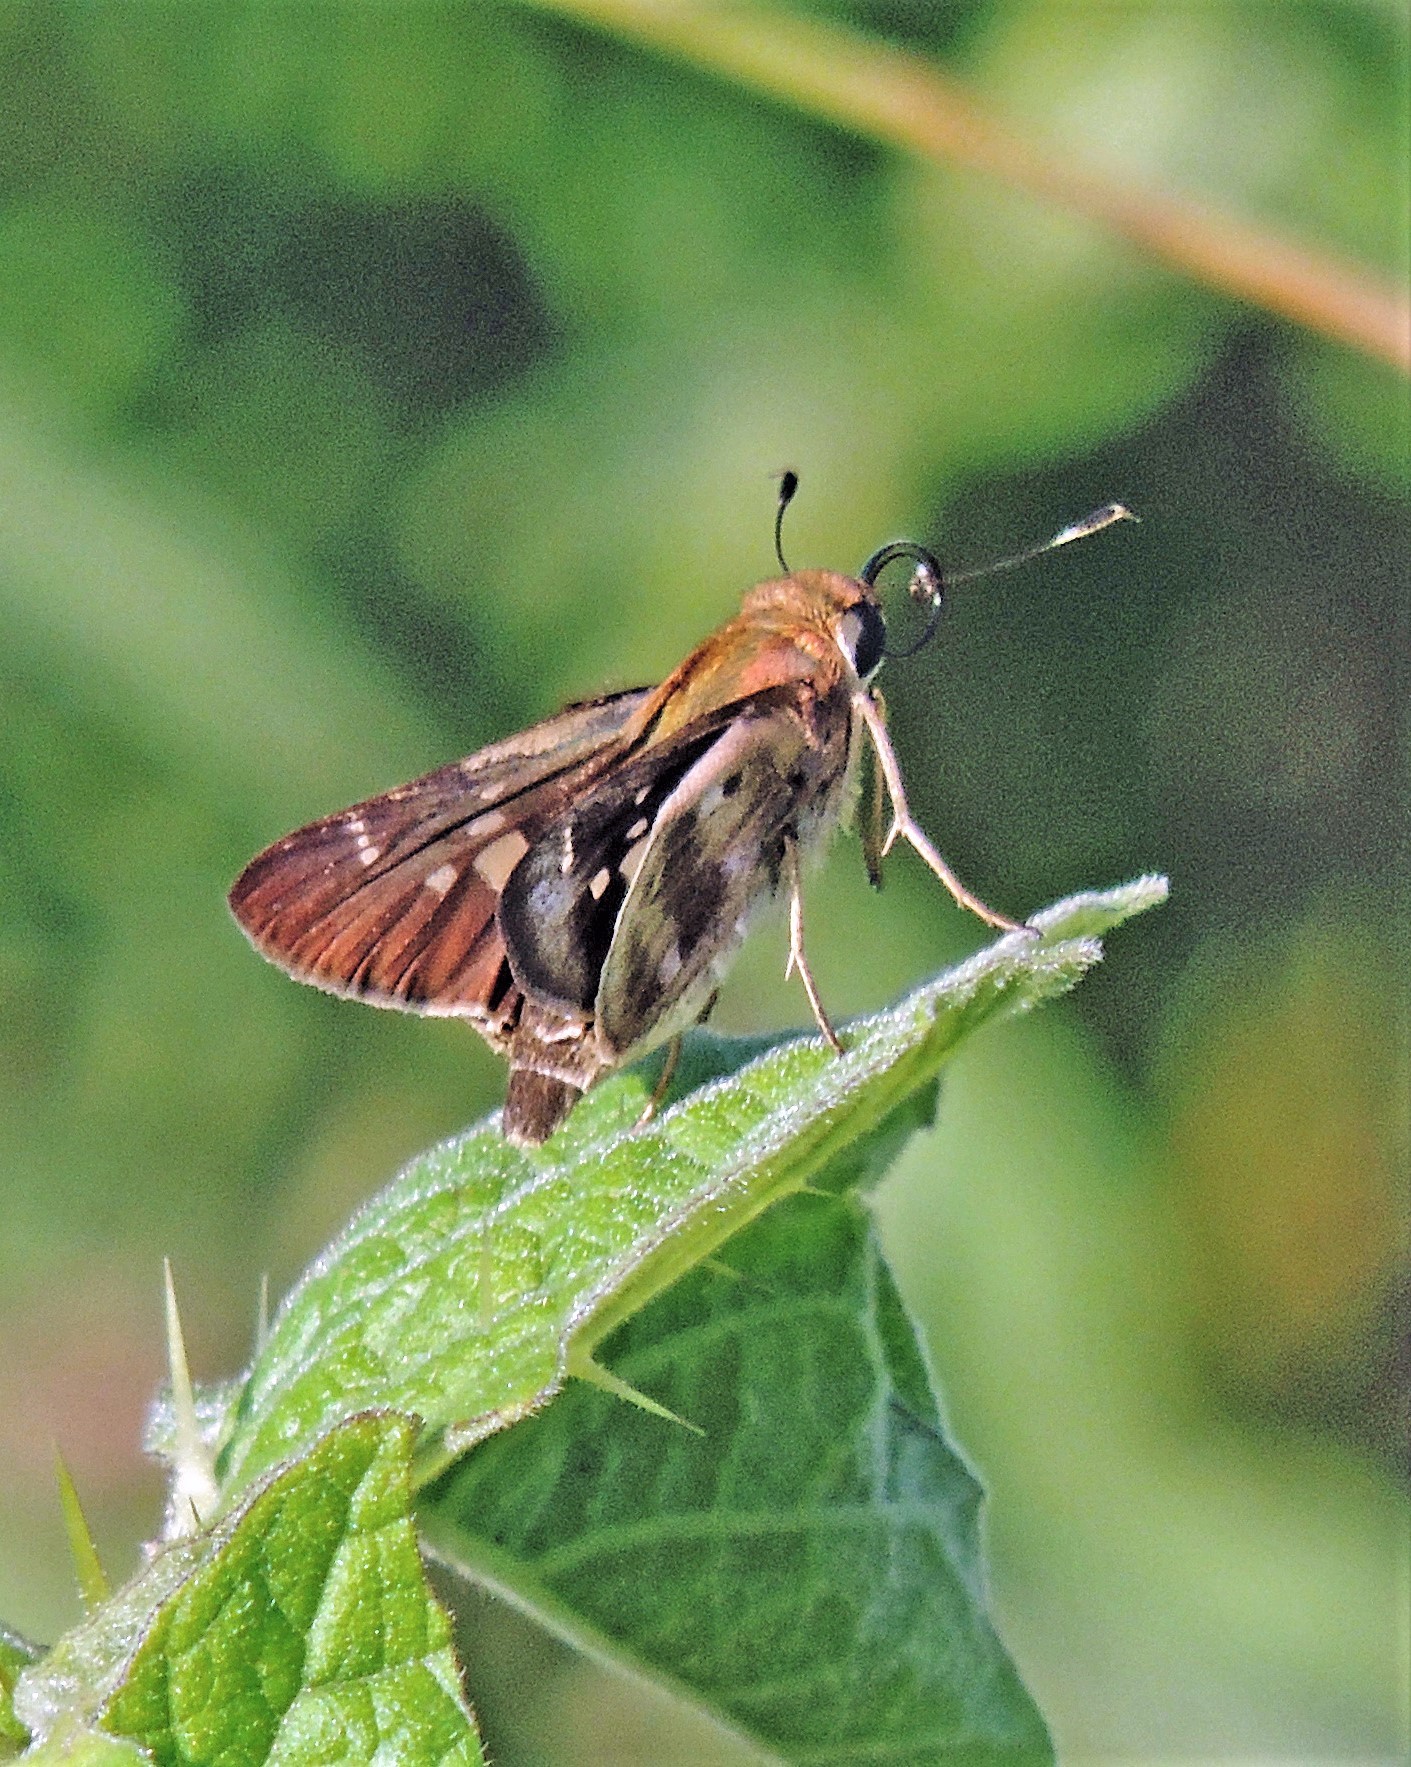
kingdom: Animalia
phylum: Arthropoda
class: Insecta
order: Lepidoptera
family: Hesperiidae
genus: Nyctelius
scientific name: Nyctelius nyctelius
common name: Violet-banded skipper
